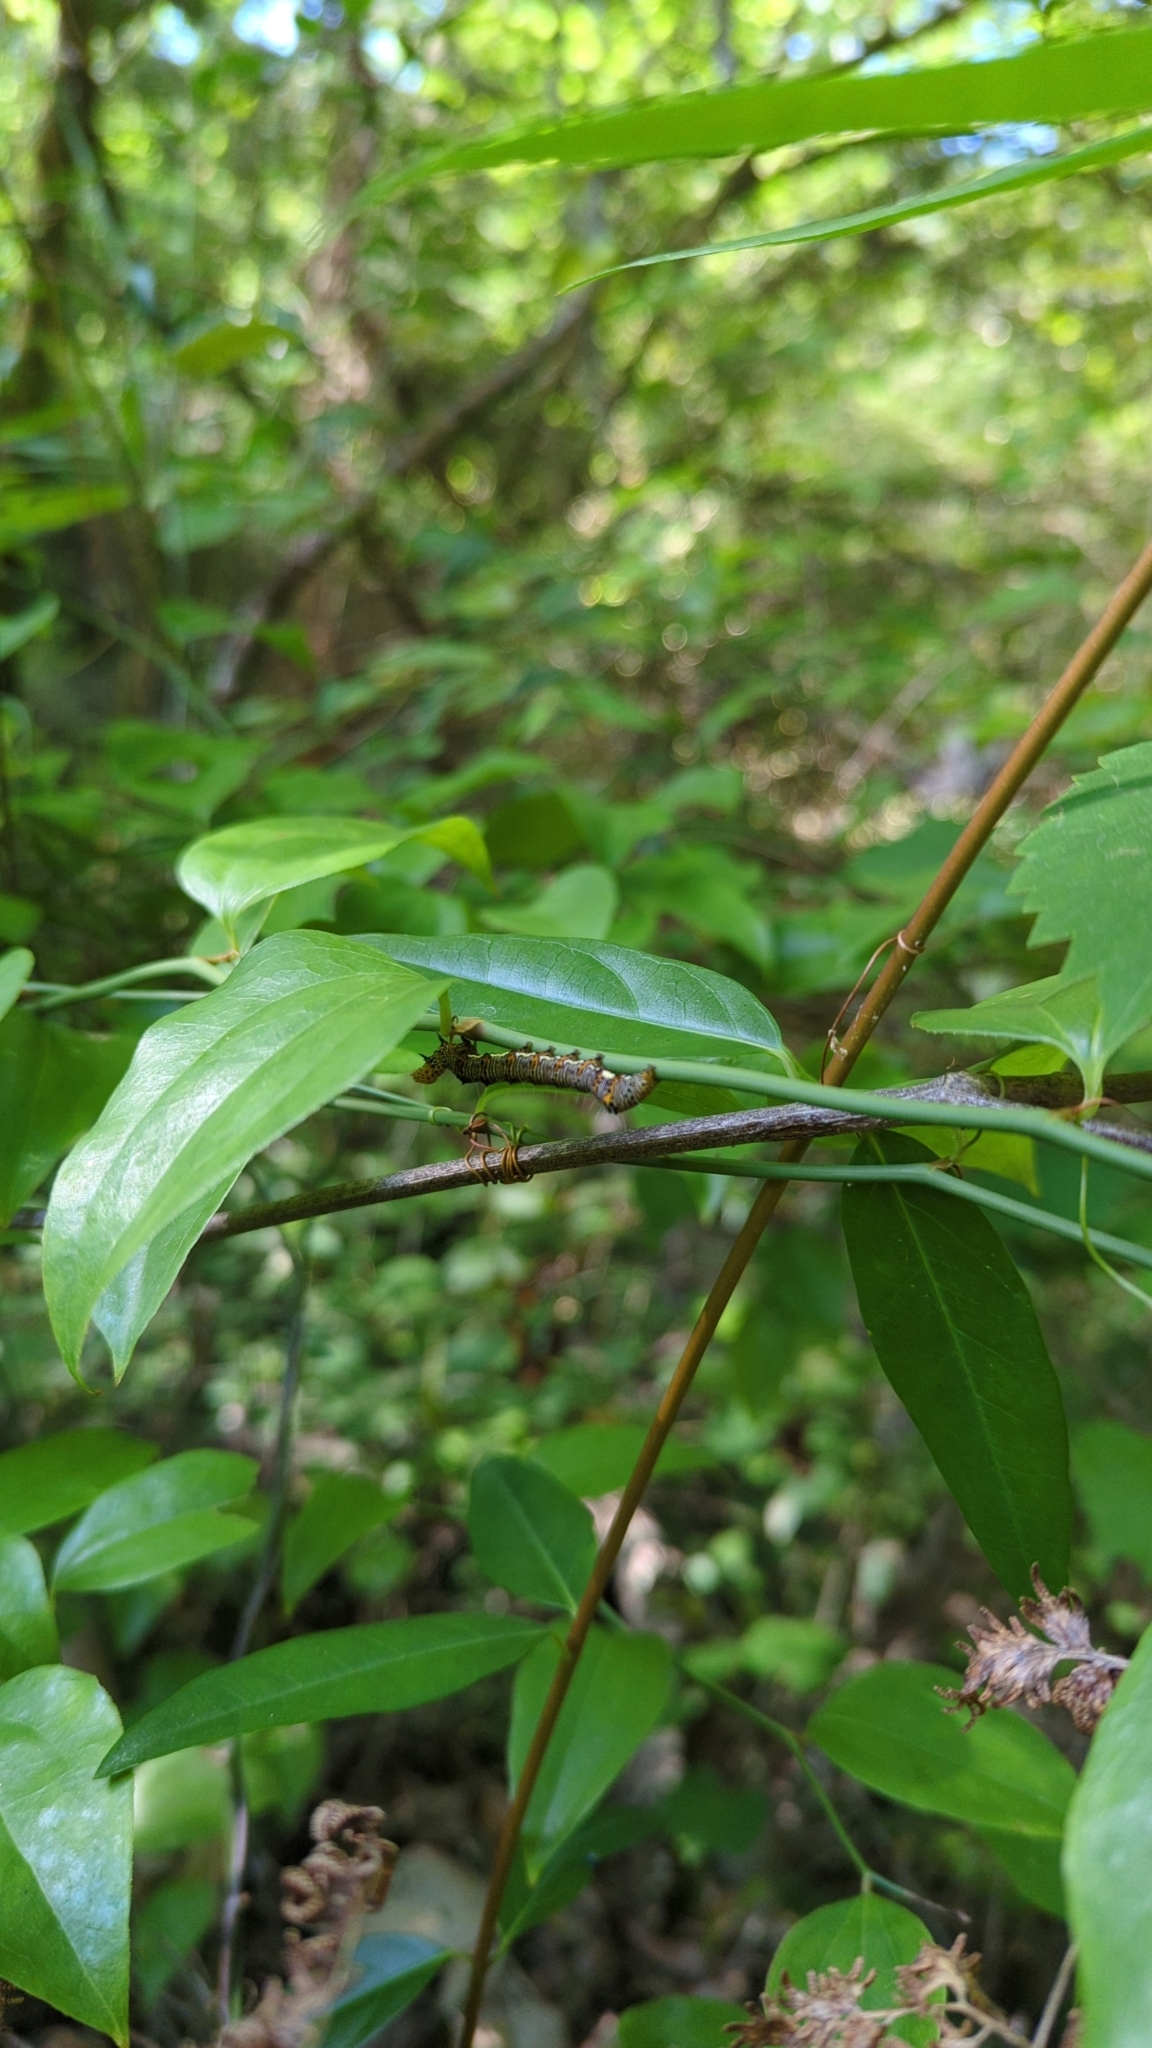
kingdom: Animalia
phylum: Arthropoda
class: Insecta
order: Lepidoptera
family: Noctuidae
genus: Alypia
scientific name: Alypia octomaculata
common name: Eight-spotted forester
